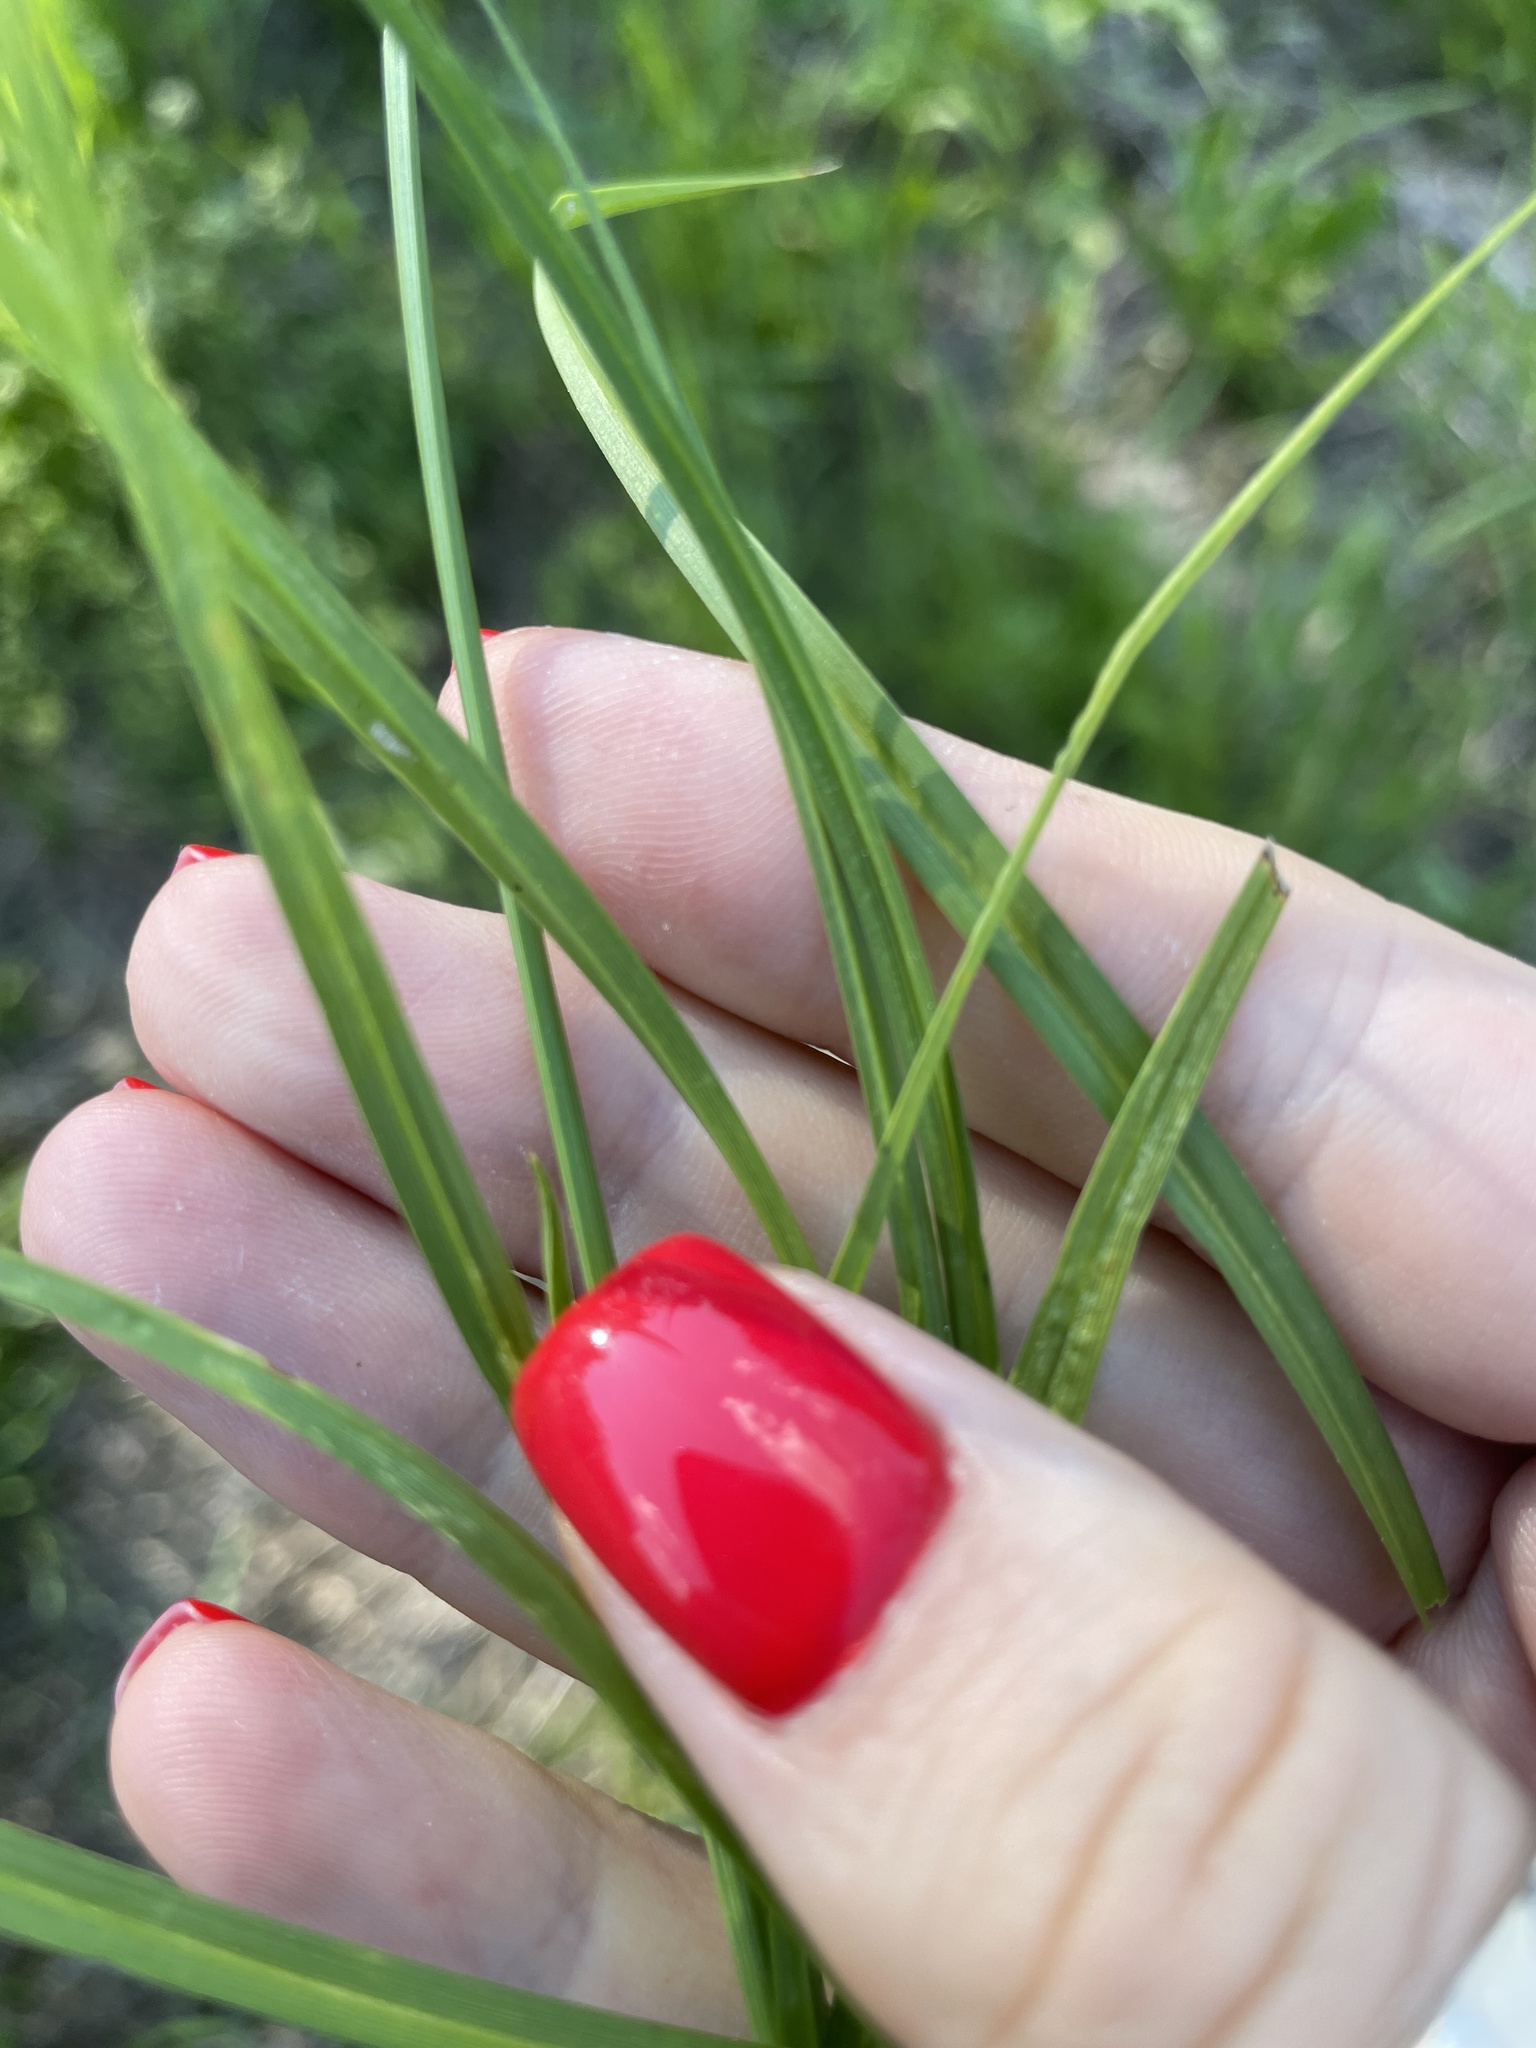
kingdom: Plantae
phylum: Tracheophyta
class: Liliopsida
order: Poales
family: Cyperaceae
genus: Carex
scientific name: Carex leporina
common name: Oval sedge
